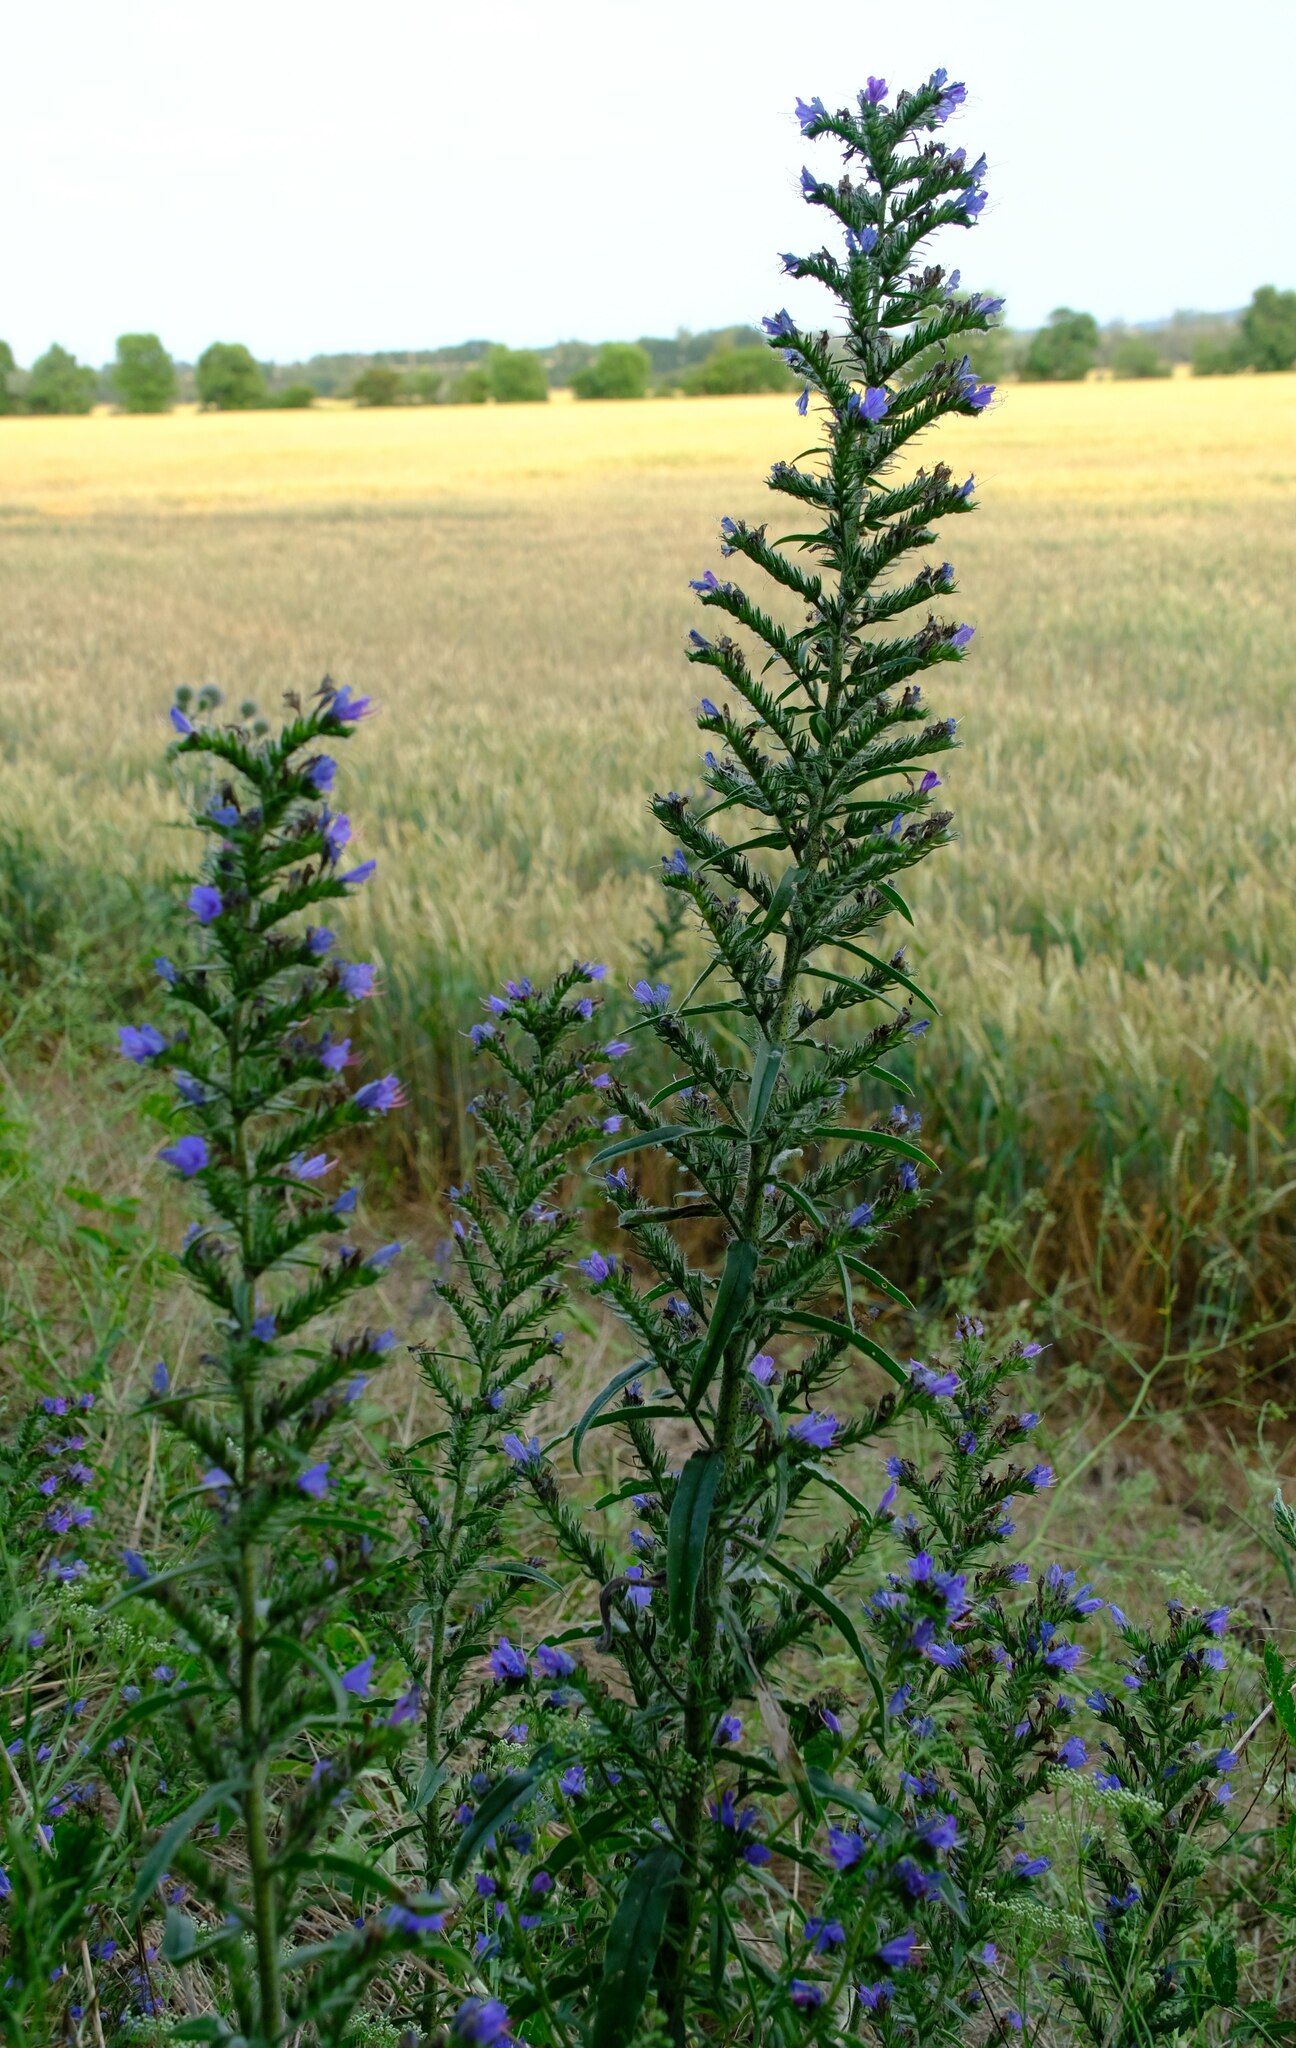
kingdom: Plantae
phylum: Tracheophyta
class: Magnoliopsida
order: Boraginales
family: Boraginaceae
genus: Echium
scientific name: Echium vulgare
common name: Common viper's bugloss
